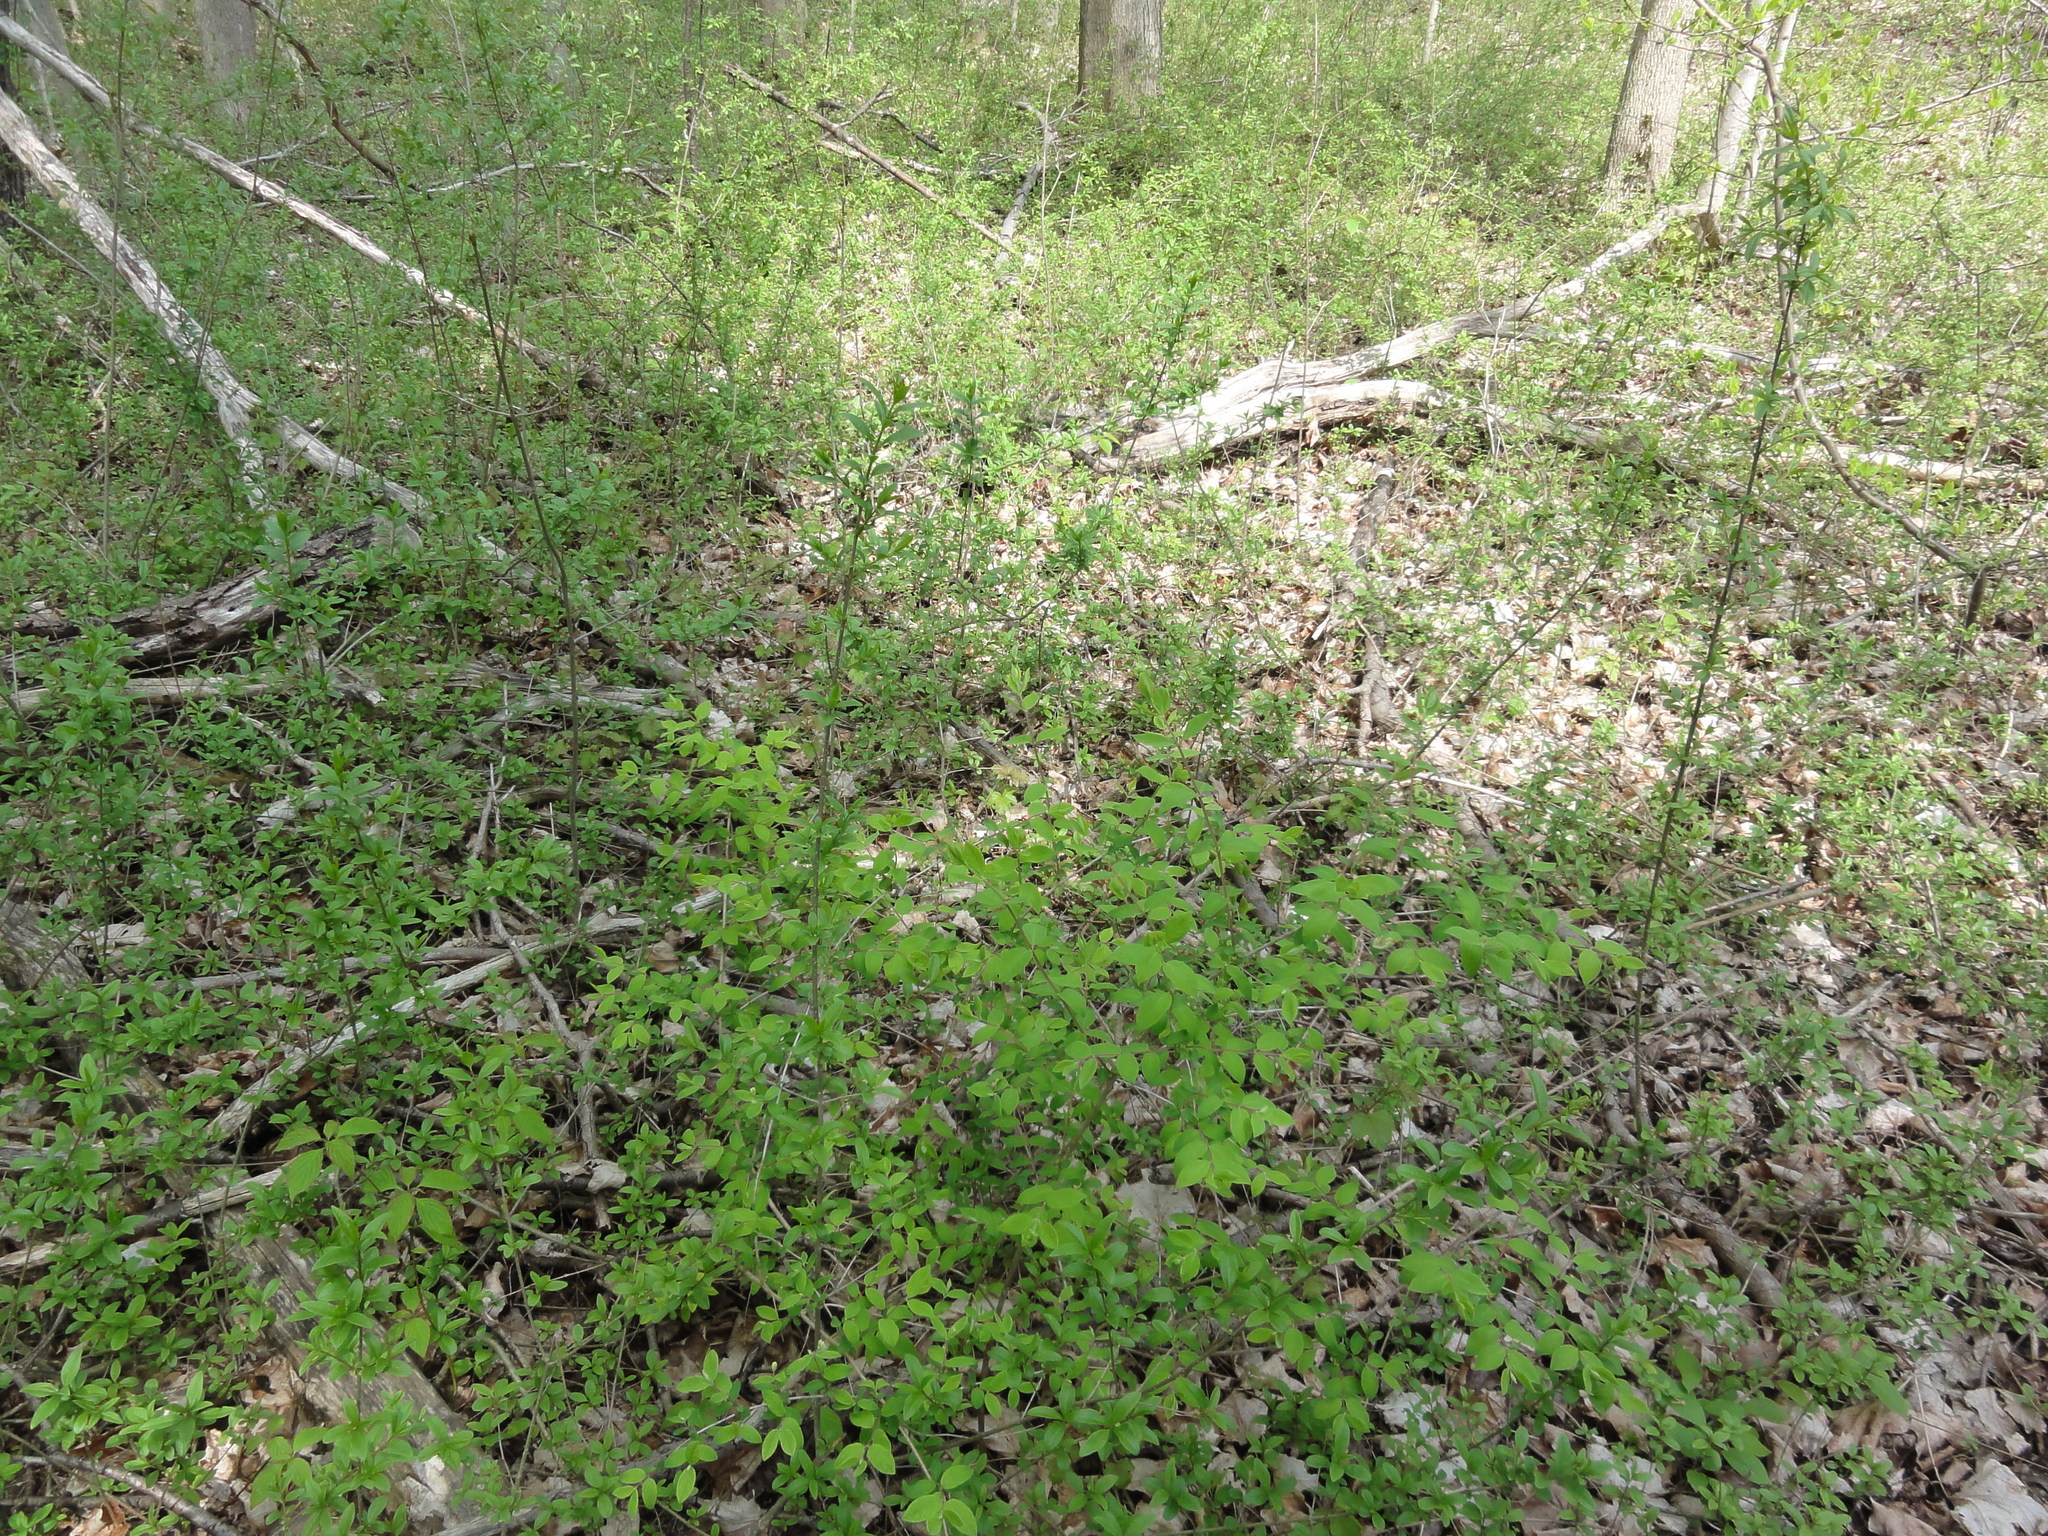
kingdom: Plantae
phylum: Tracheophyta
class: Magnoliopsida
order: Lamiales
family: Oleaceae
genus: Ligustrum
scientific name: Ligustrum obtusifolium
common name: Border privet
